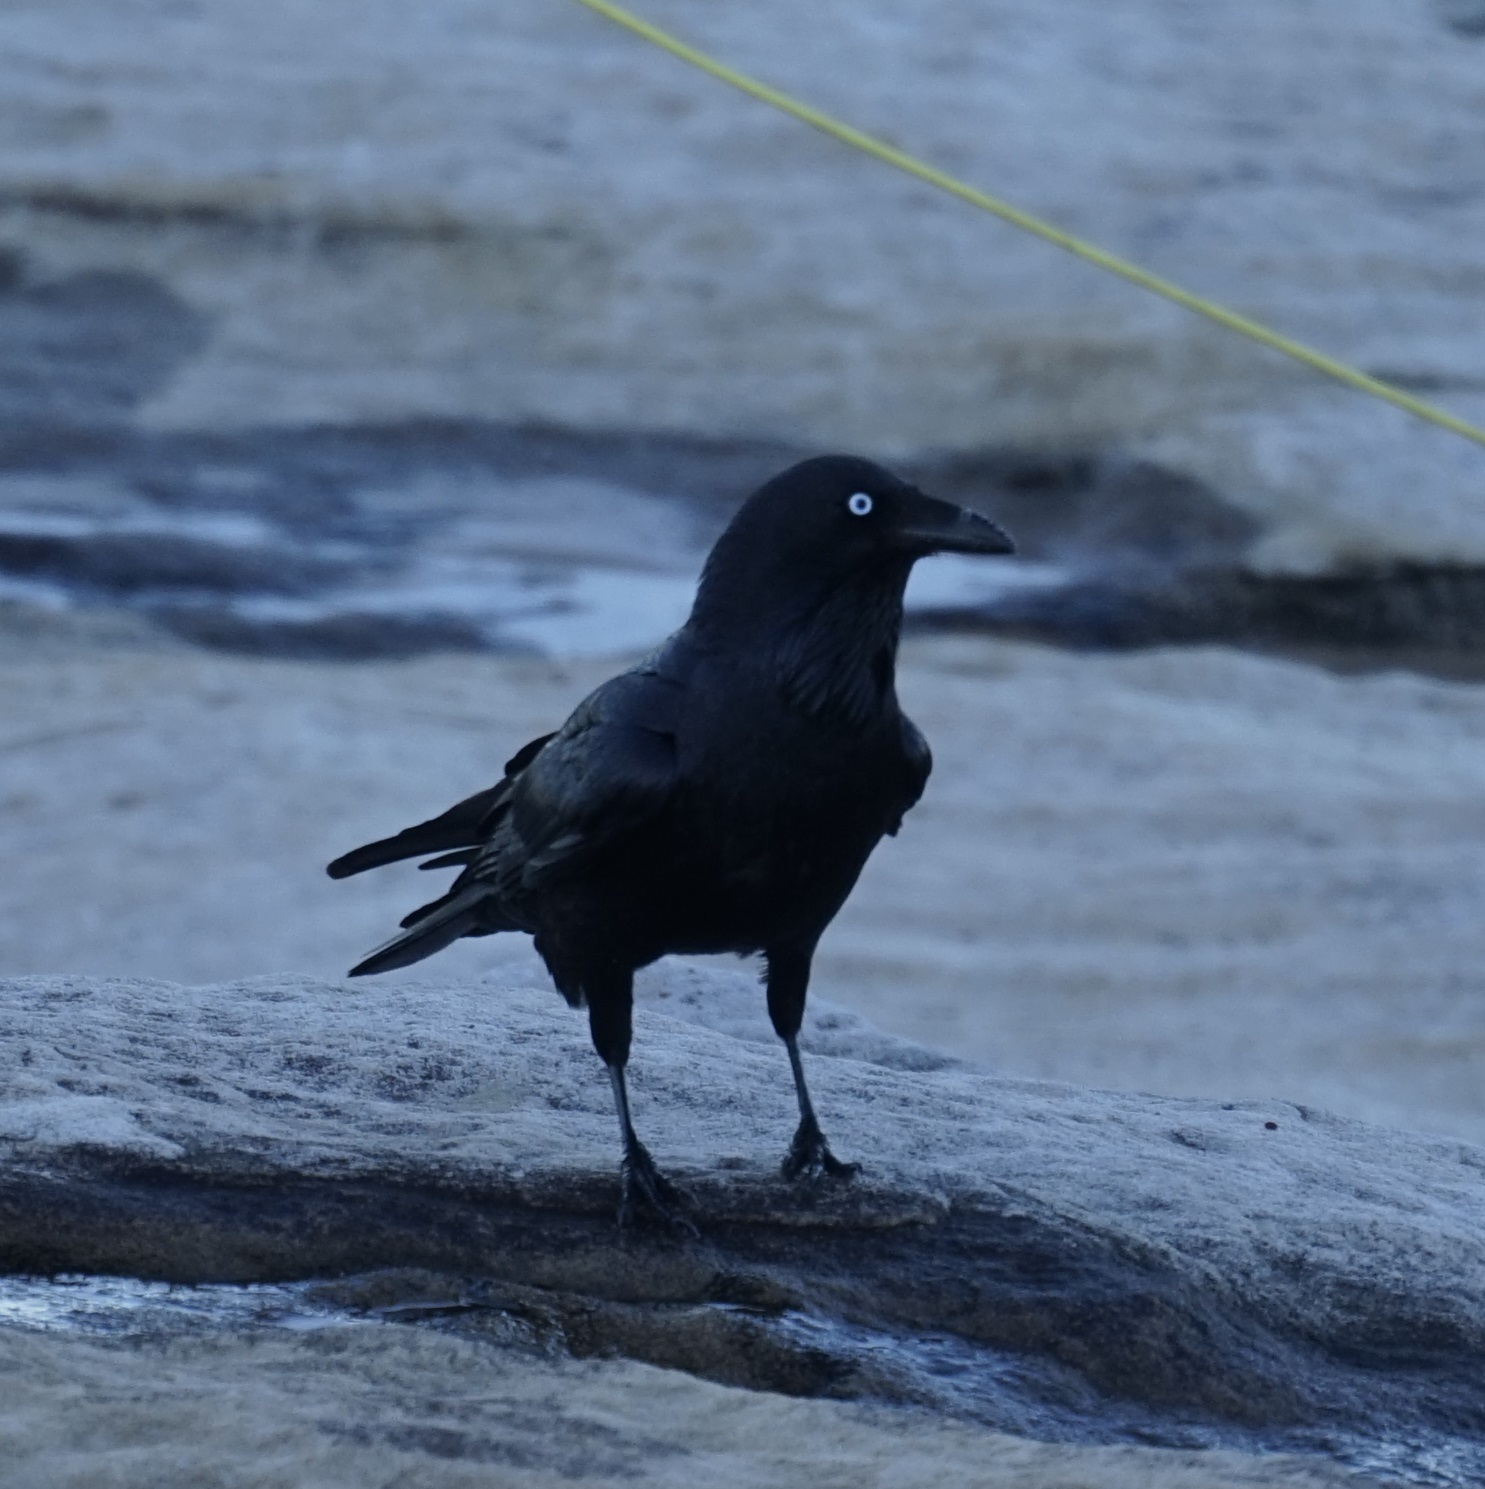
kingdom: Animalia
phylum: Chordata
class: Aves
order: Passeriformes
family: Corvidae
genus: Corvus
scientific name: Corvus coronoides
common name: Australian raven
